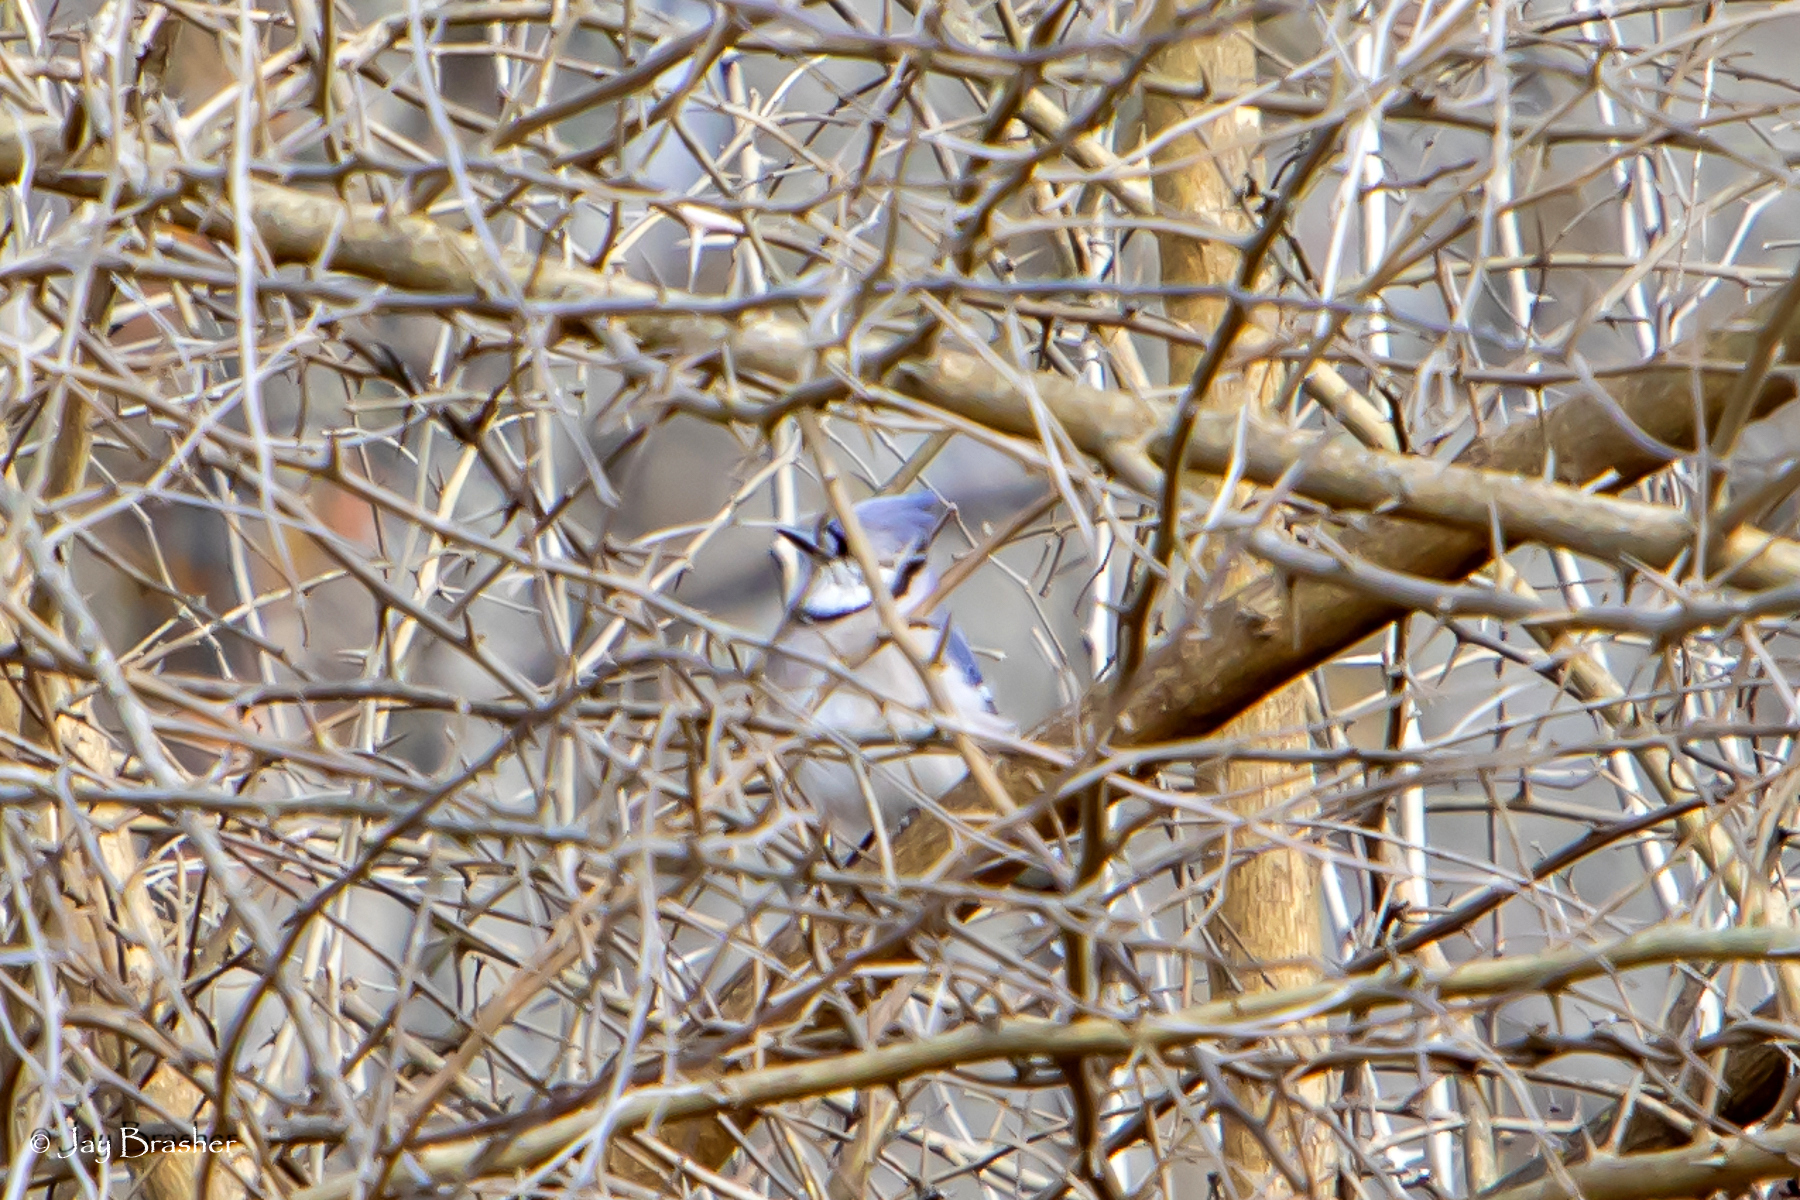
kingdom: Animalia
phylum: Chordata
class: Aves
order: Passeriformes
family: Corvidae
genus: Cyanocitta
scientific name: Cyanocitta cristata
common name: Blue jay
